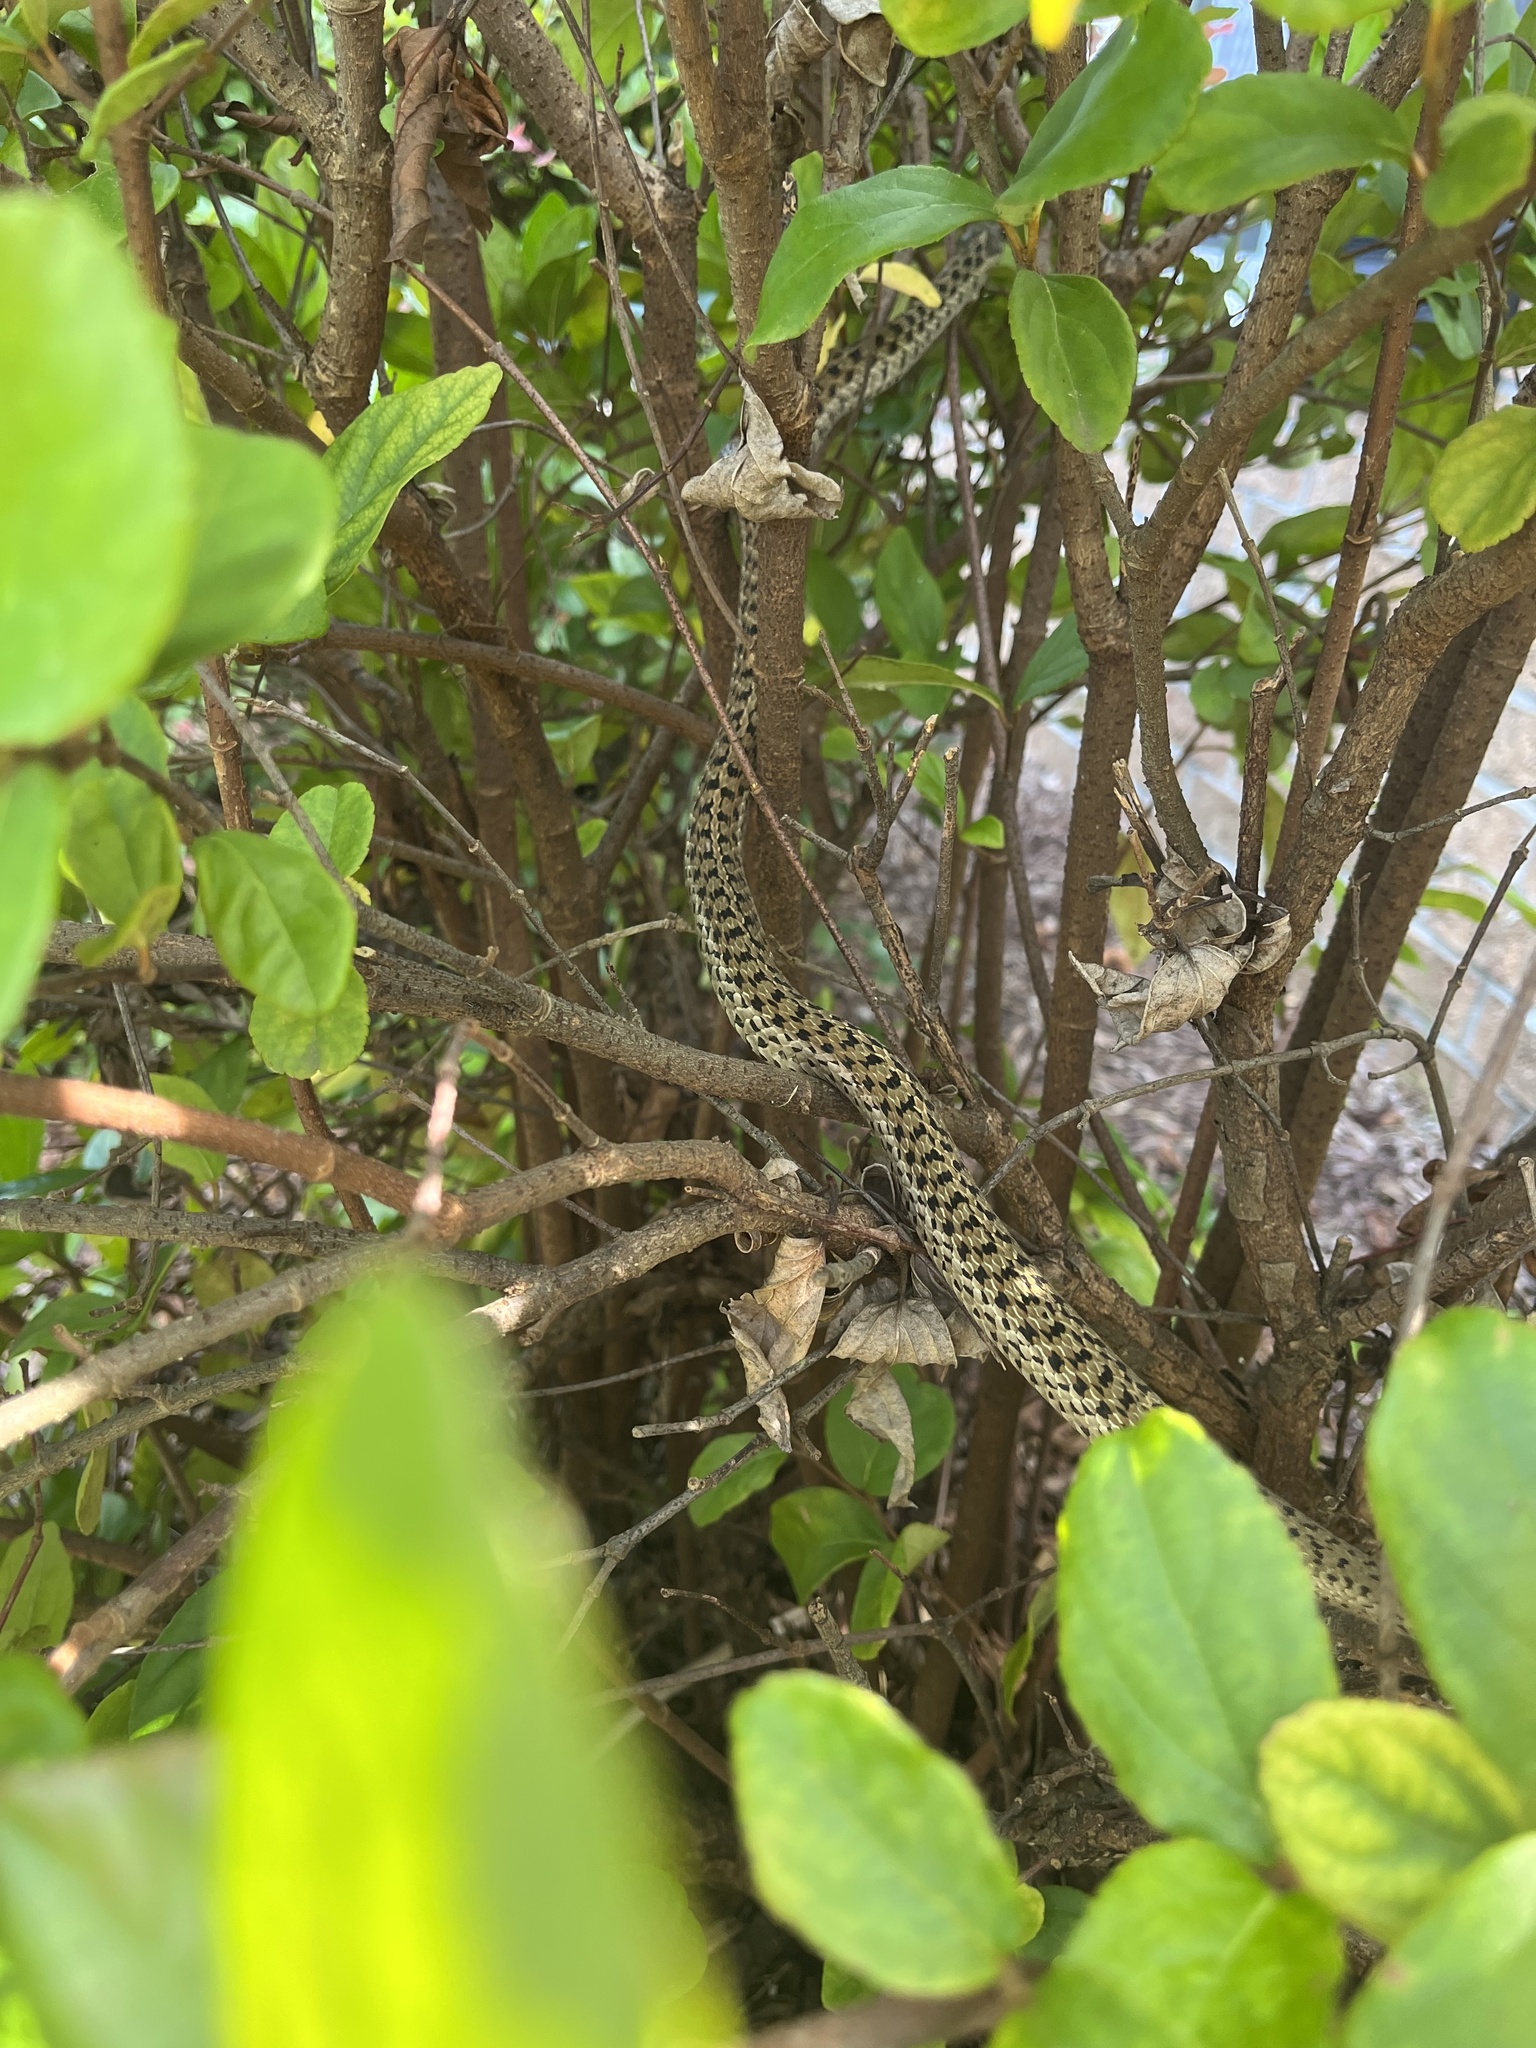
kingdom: Animalia
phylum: Chordata
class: Squamata
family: Colubridae
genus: Thamnophis
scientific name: Thamnophis sirtalis
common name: Common garter snake
